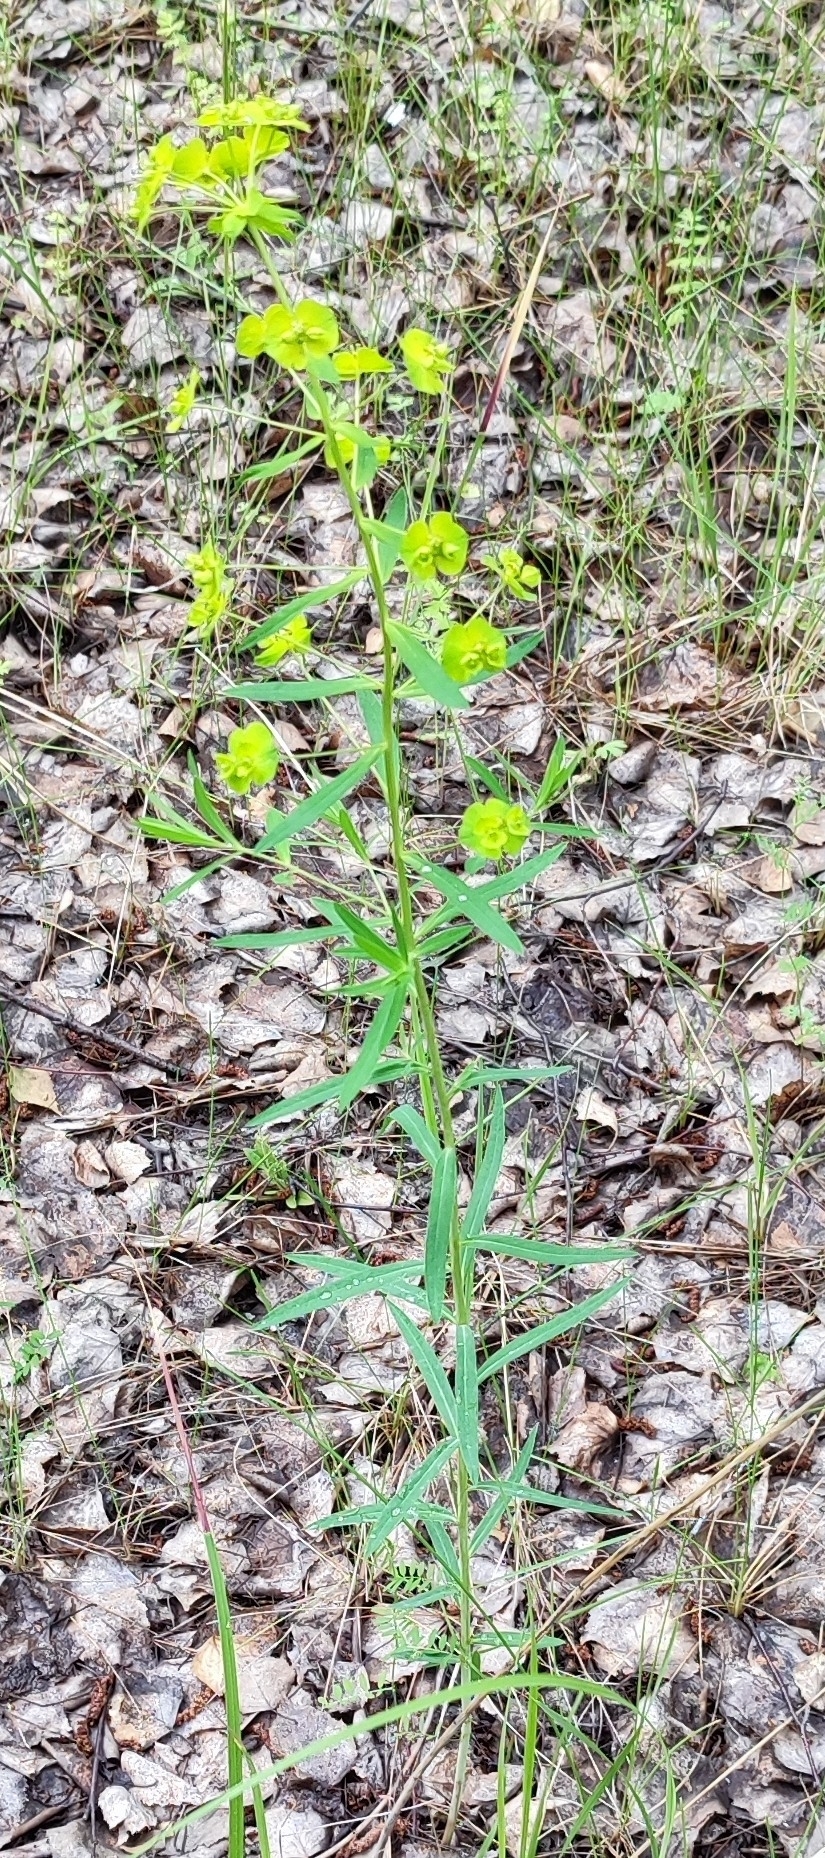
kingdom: Plantae
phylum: Tracheophyta
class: Magnoliopsida
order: Malpighiales
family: Euphorbiaceae
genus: Euphorbia
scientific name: Euphorbia virgata
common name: Leafy spurge
